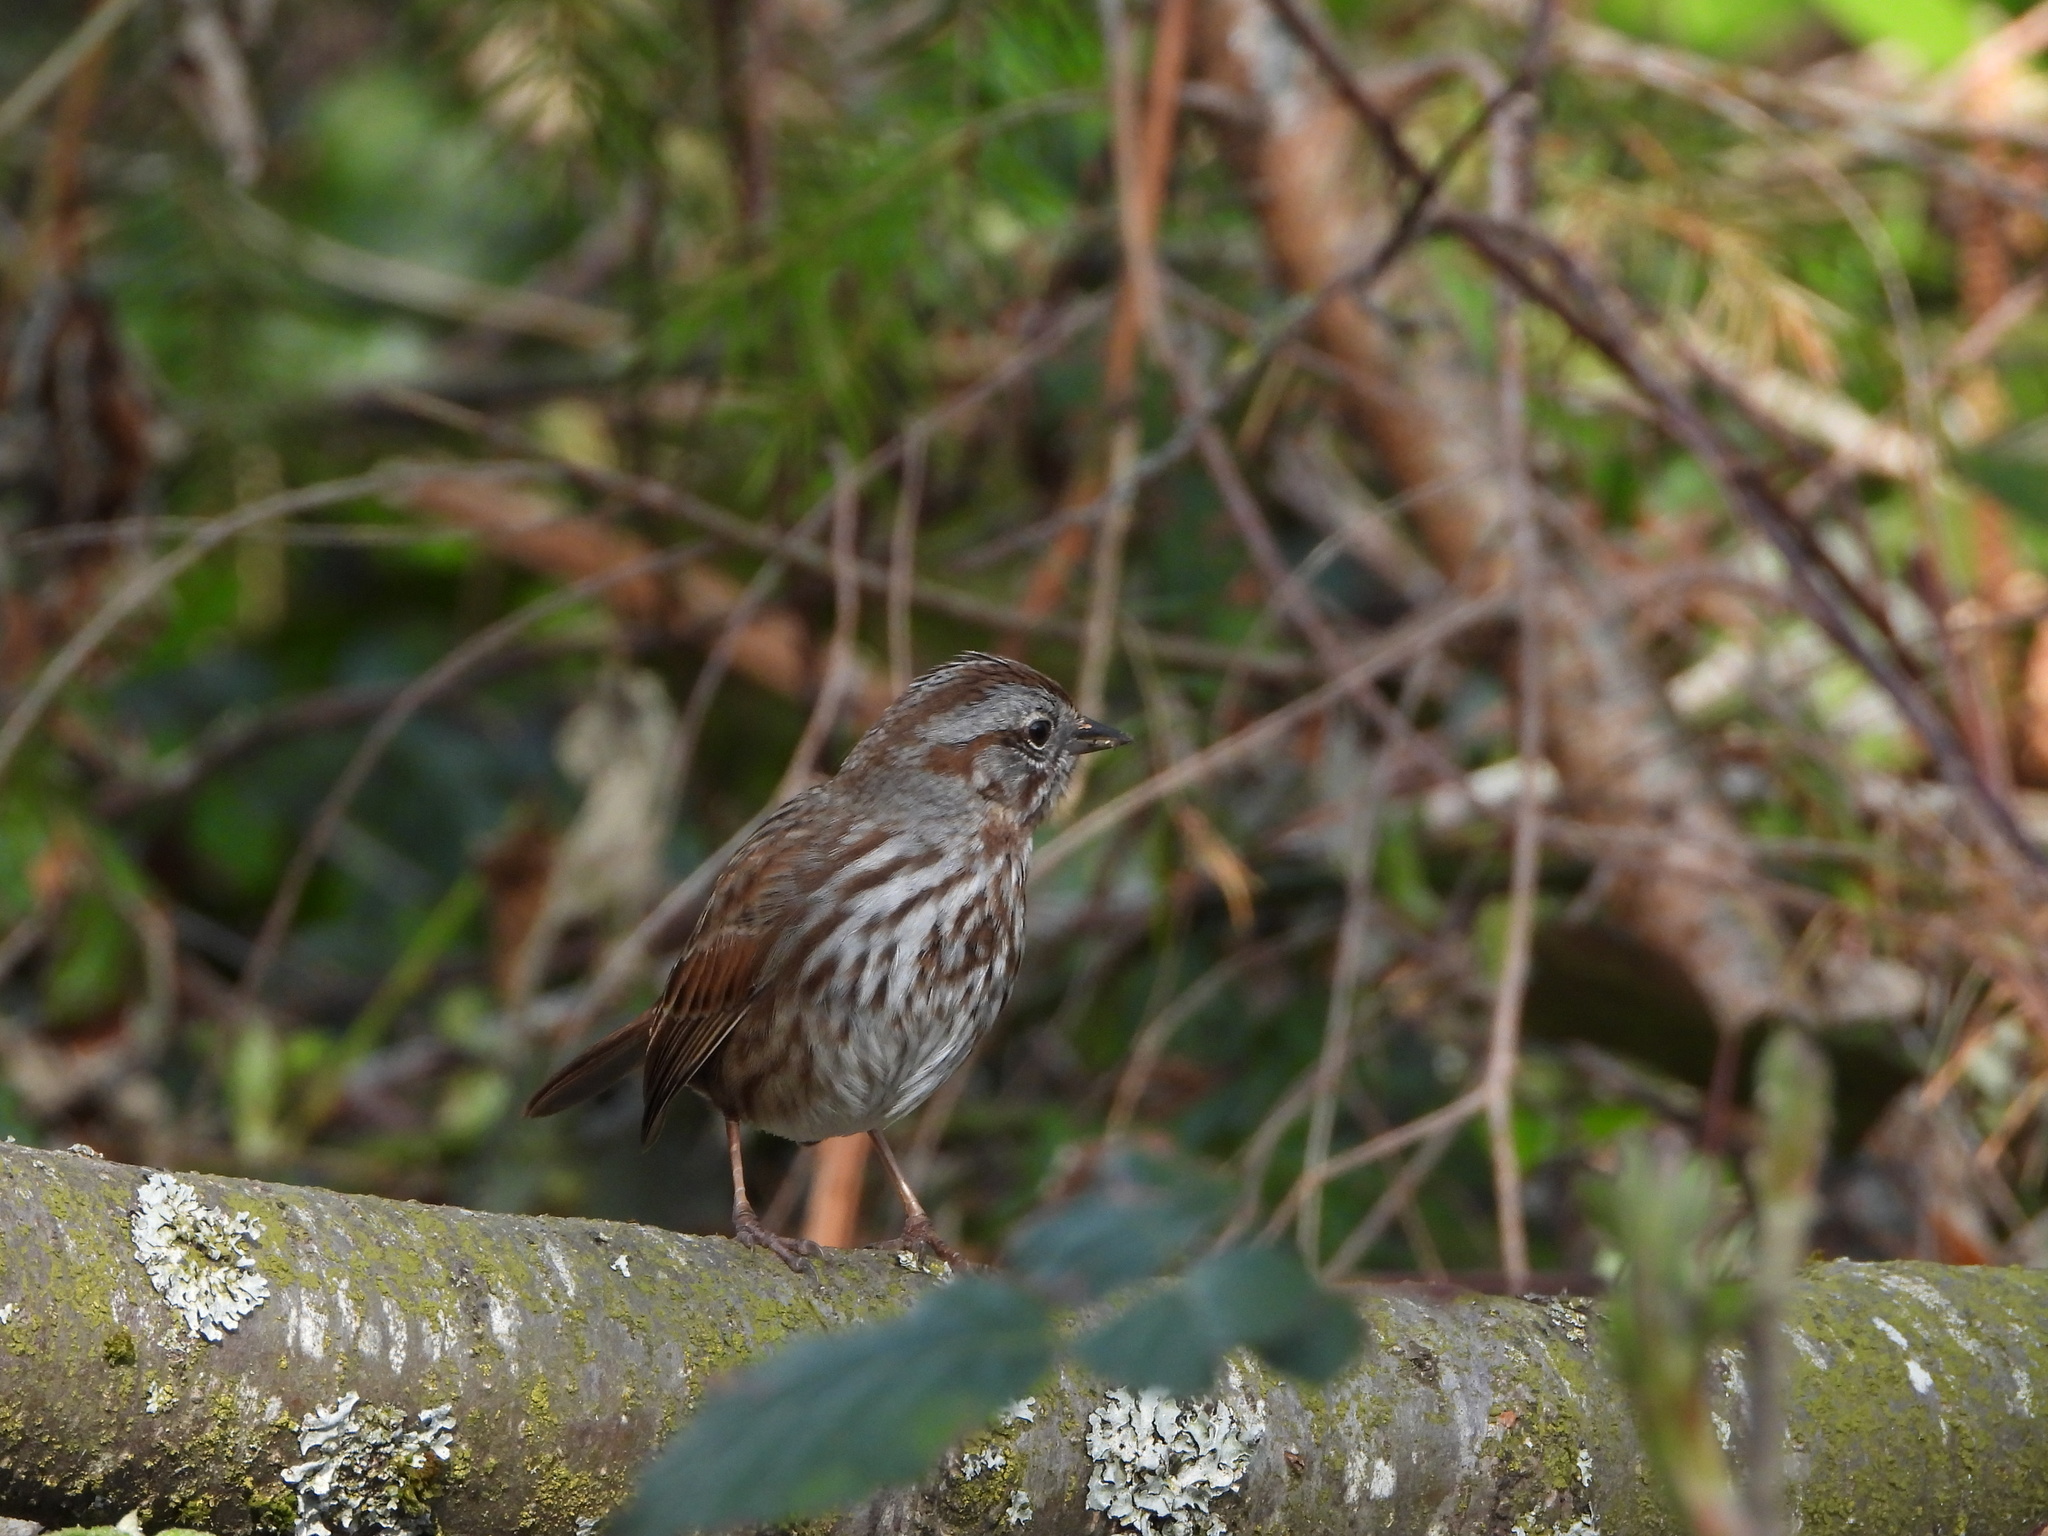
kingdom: Animalia
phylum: Chordata
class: Aves
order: Passeriformes
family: Passerellidae
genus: Melospiza
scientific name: Melospiza melodia
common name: Song sparrow
